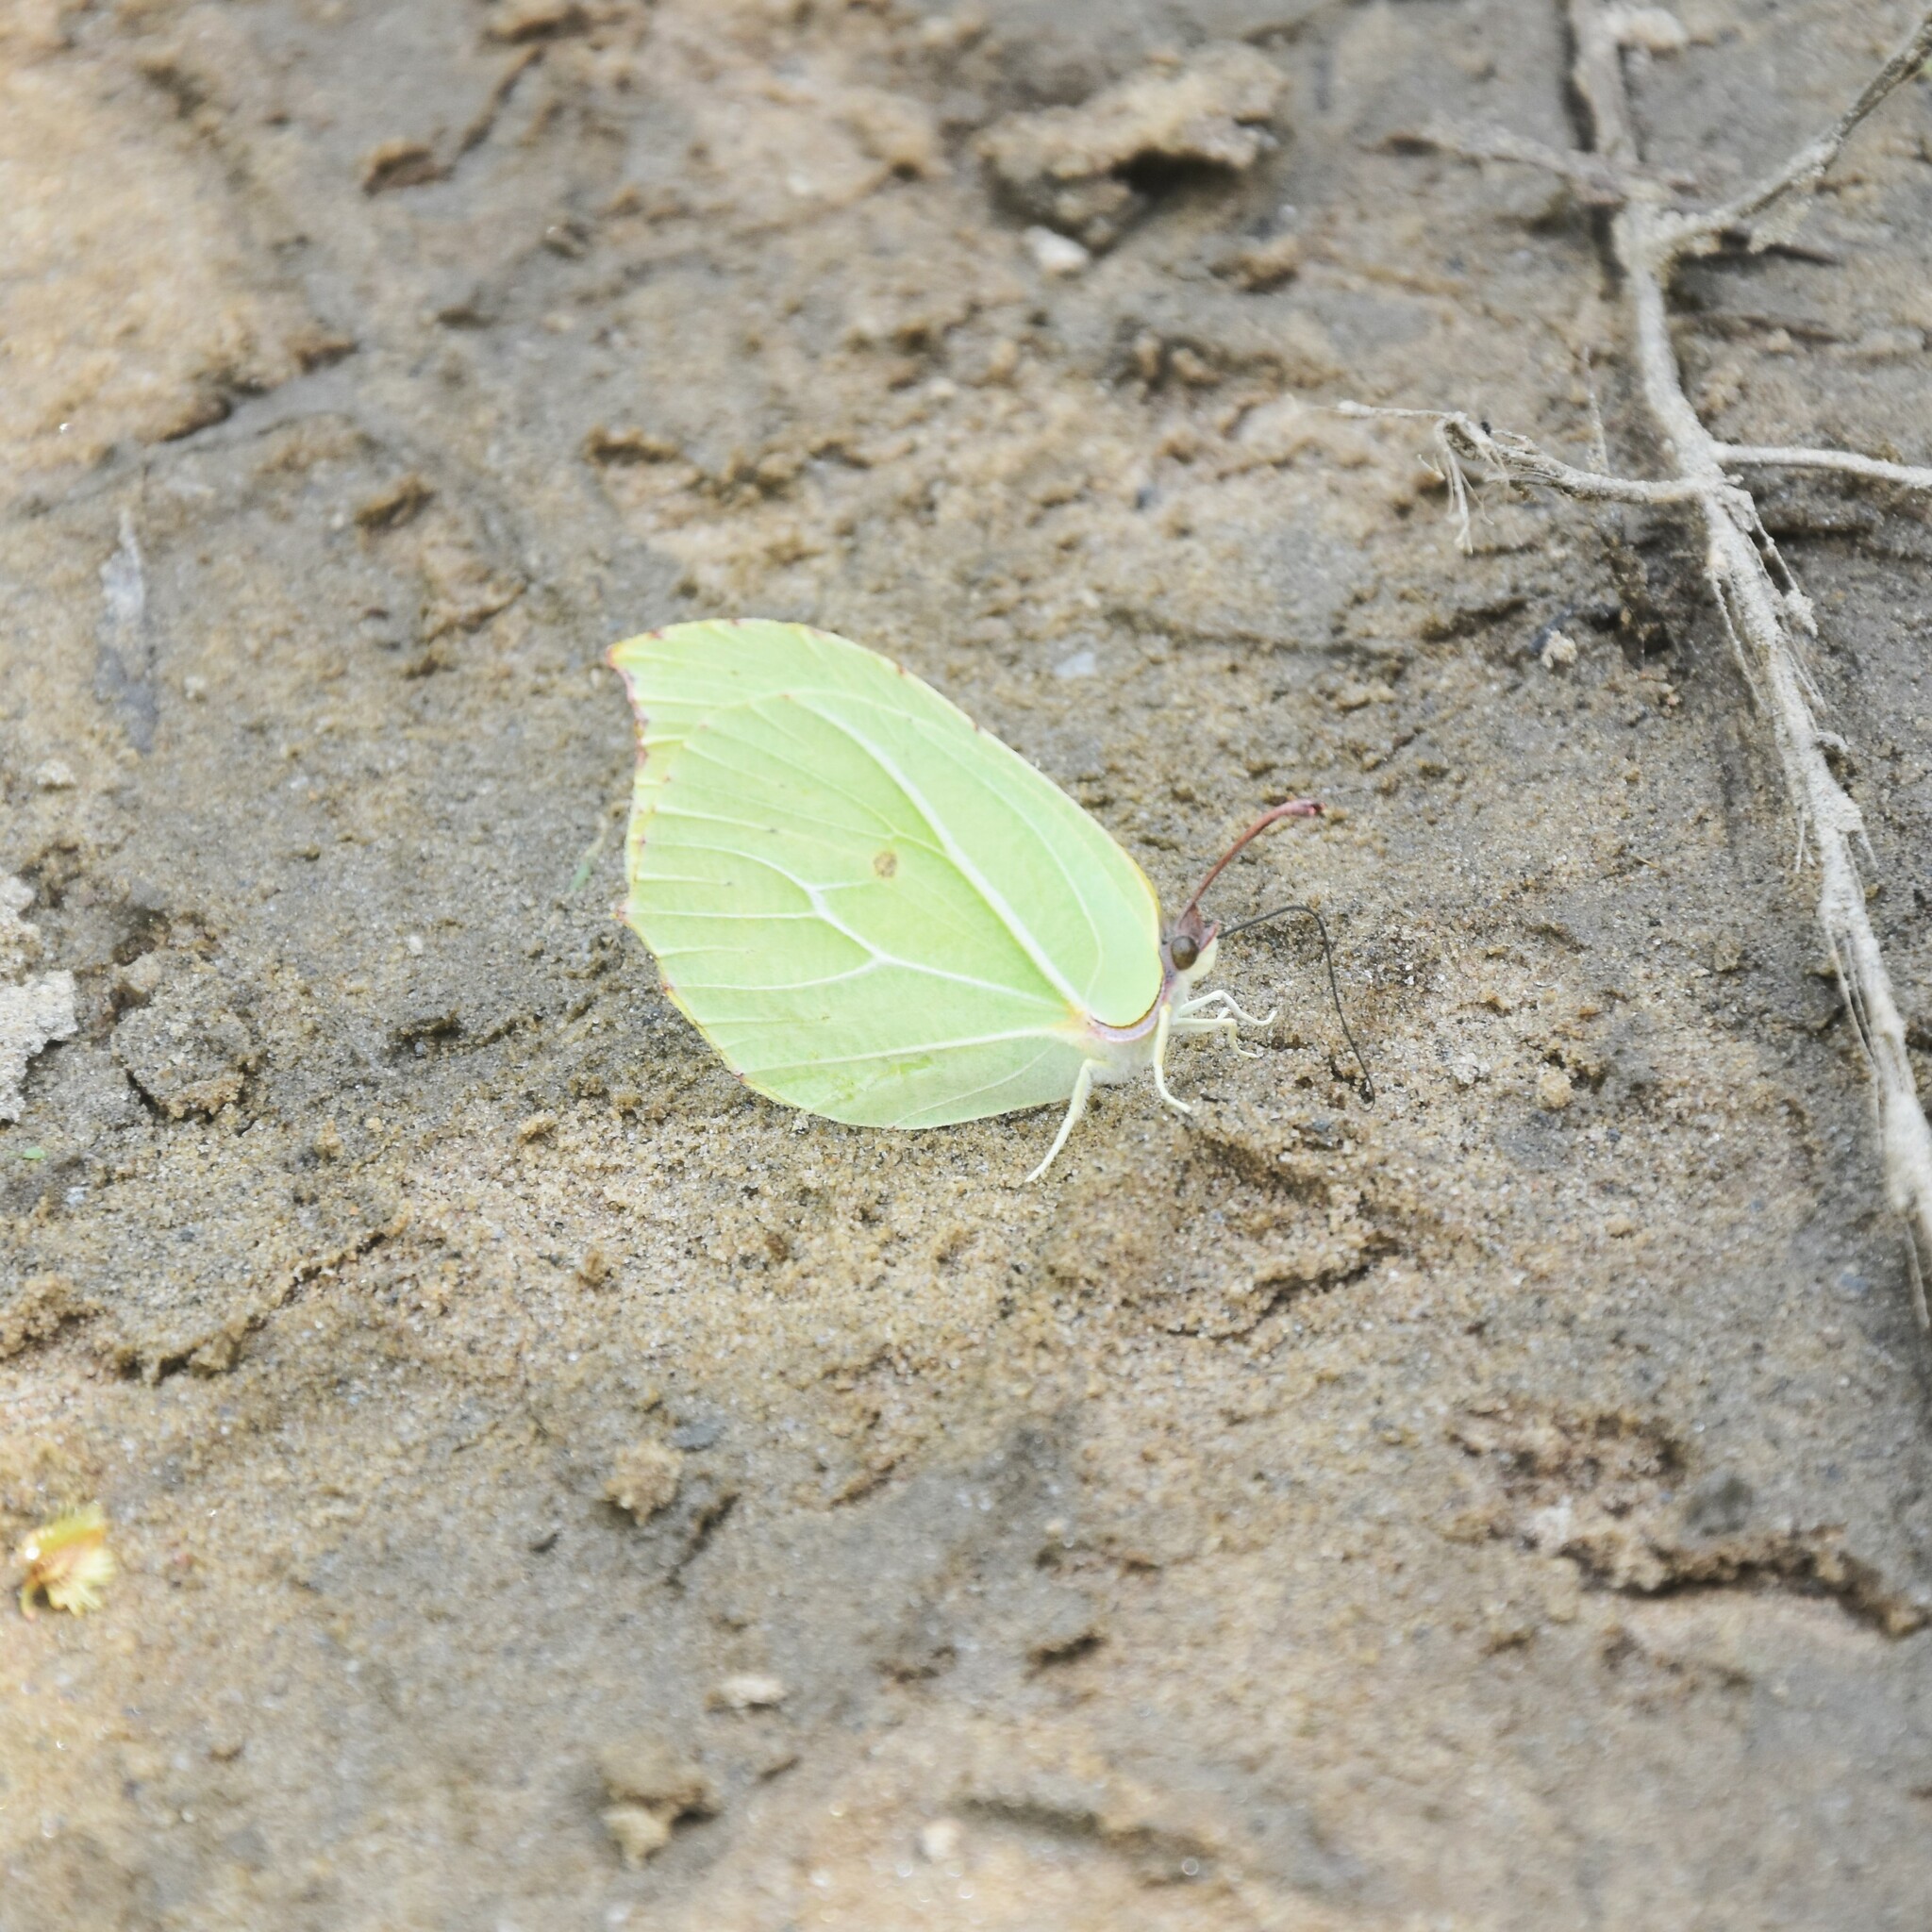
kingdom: Animalia
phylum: Arthropoda
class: Insecta
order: Lepidoptera
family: Pieridae
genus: Gonepteryx
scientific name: Gonepteryx
